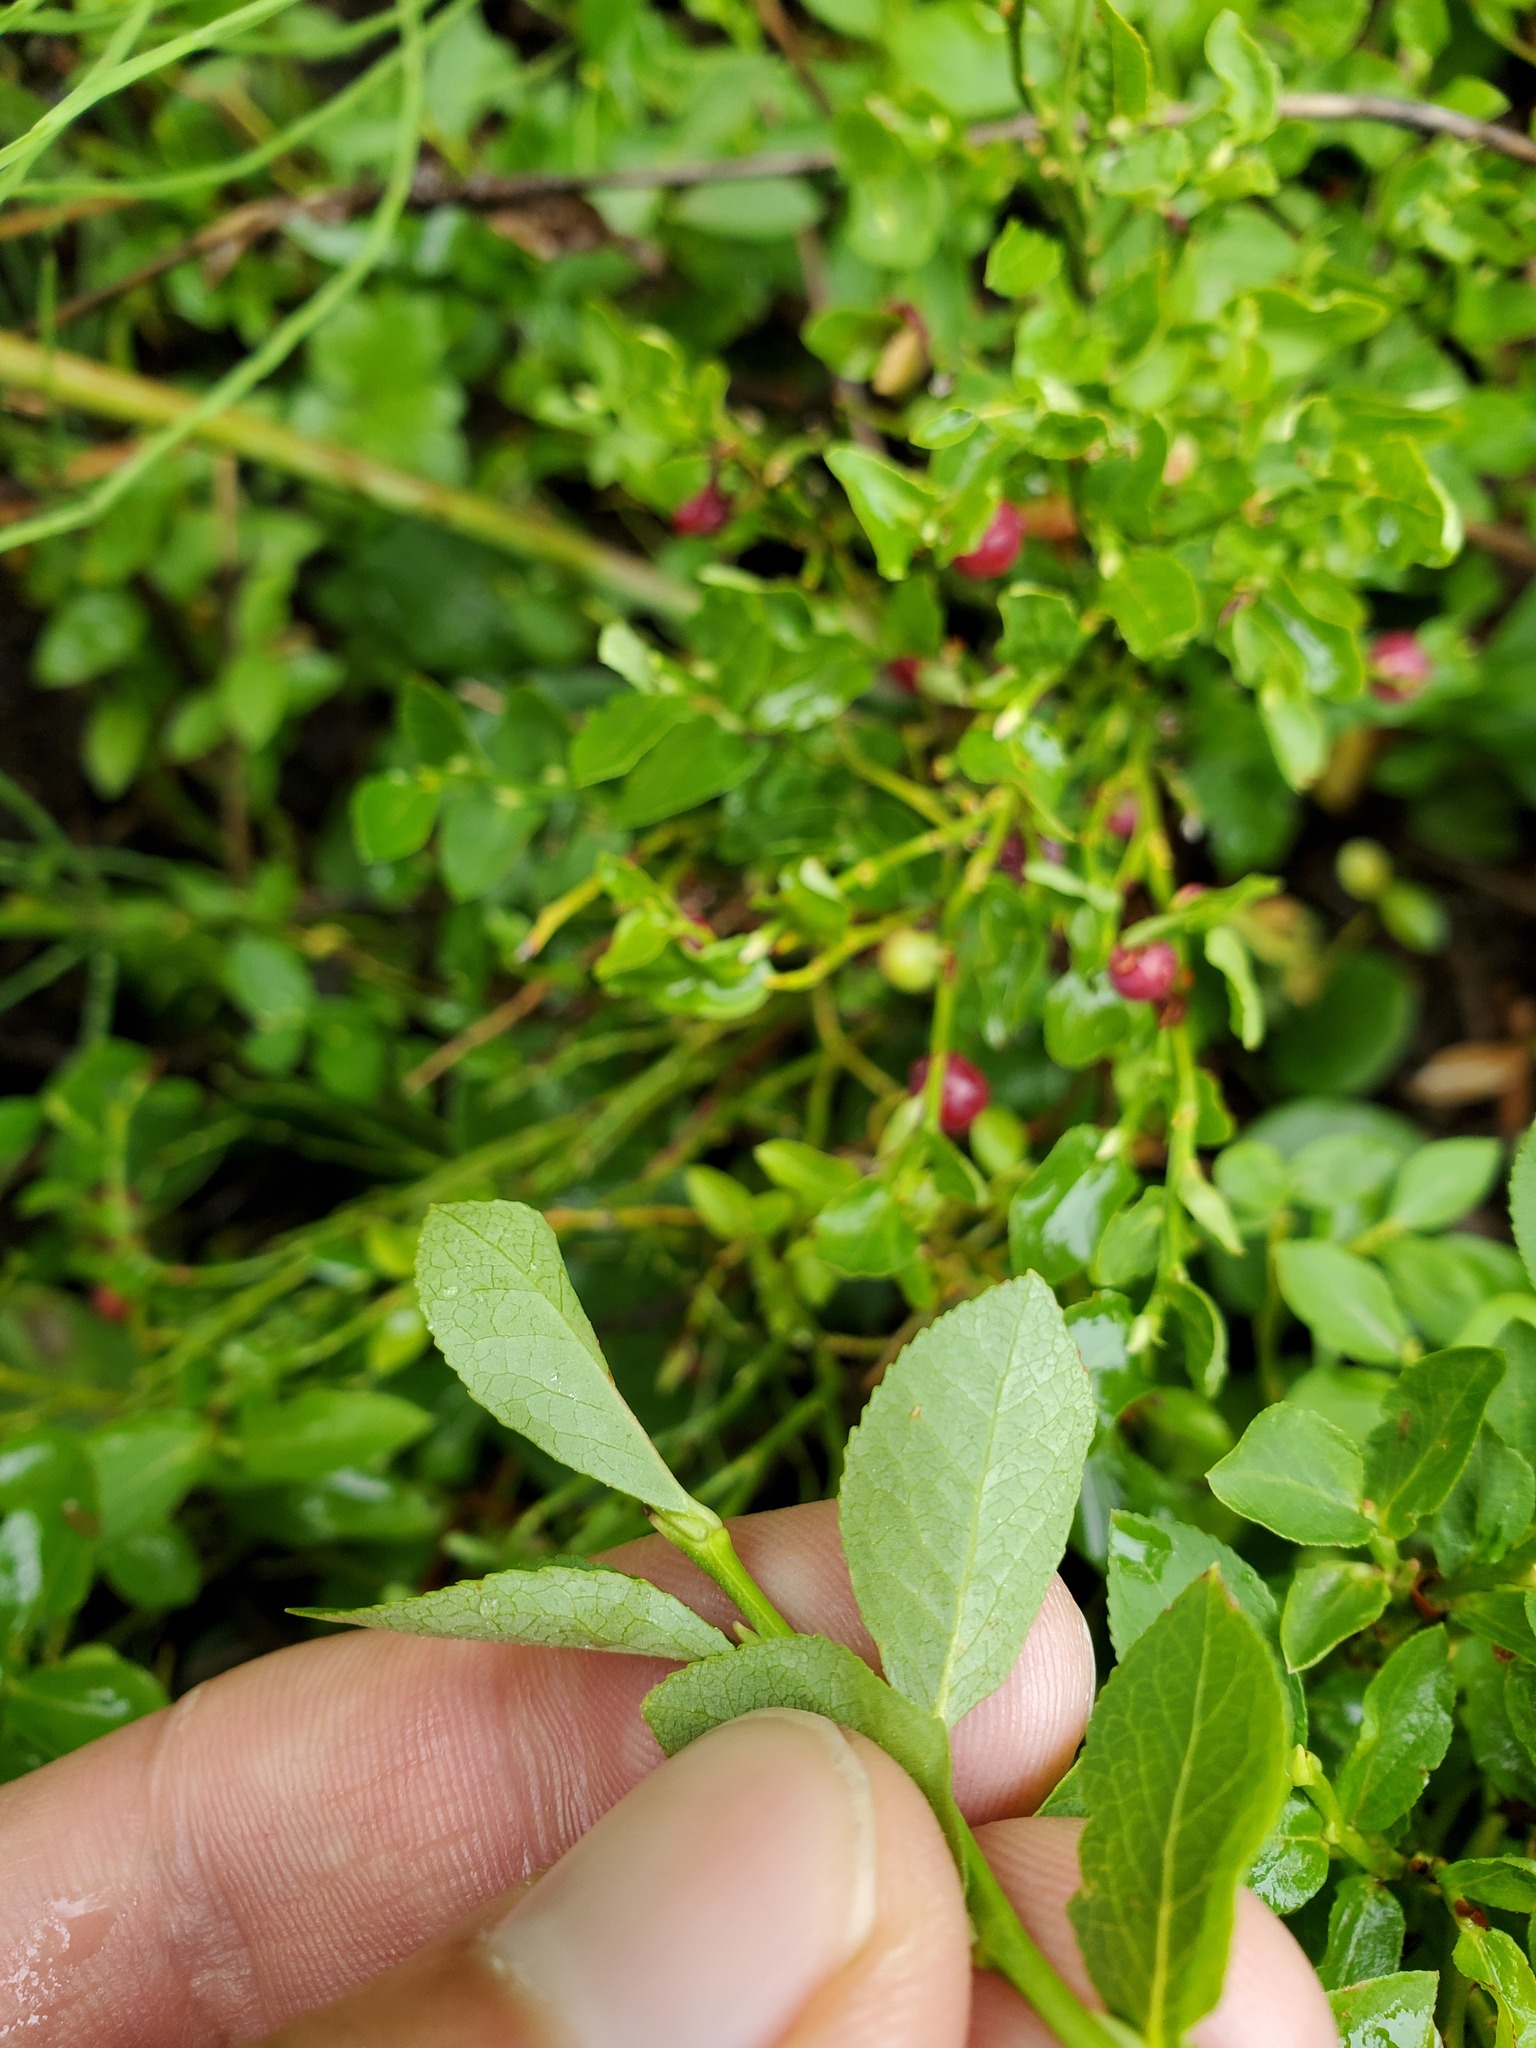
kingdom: Plantae
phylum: Tracheophyta
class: Magnoliopsida
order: Ericales
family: Ericaceae
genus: Vaccinium
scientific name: Vaccinium myrtillus
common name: Bilberry
